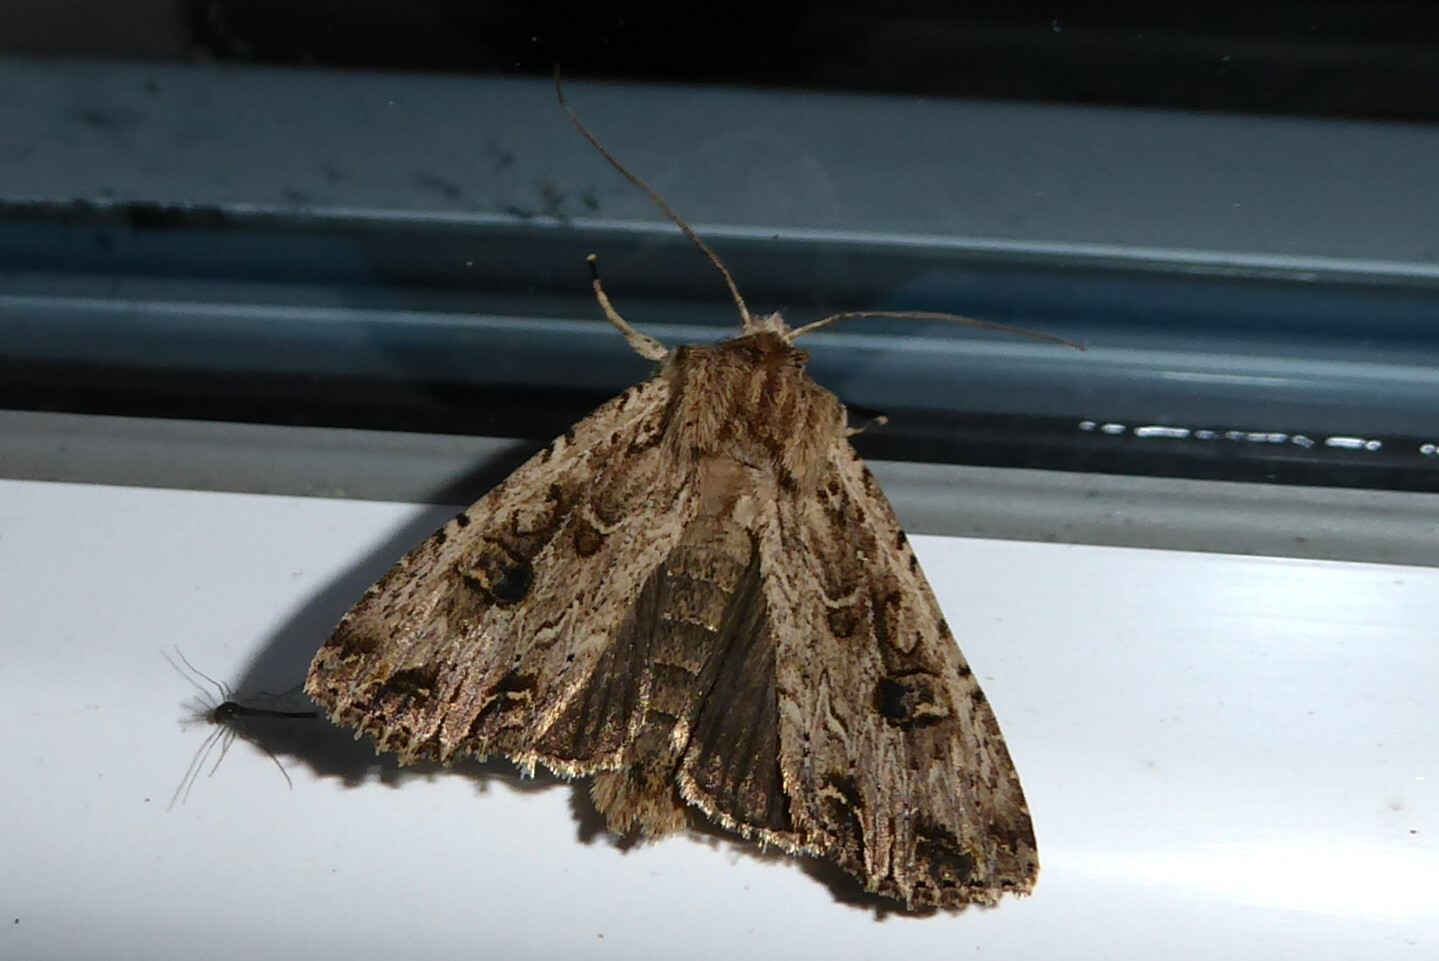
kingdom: Animalia
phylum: Arthropoda
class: Insecta
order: Lepidoptera
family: Noctuidae
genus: Ichneutica
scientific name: Ichneutica lignana
